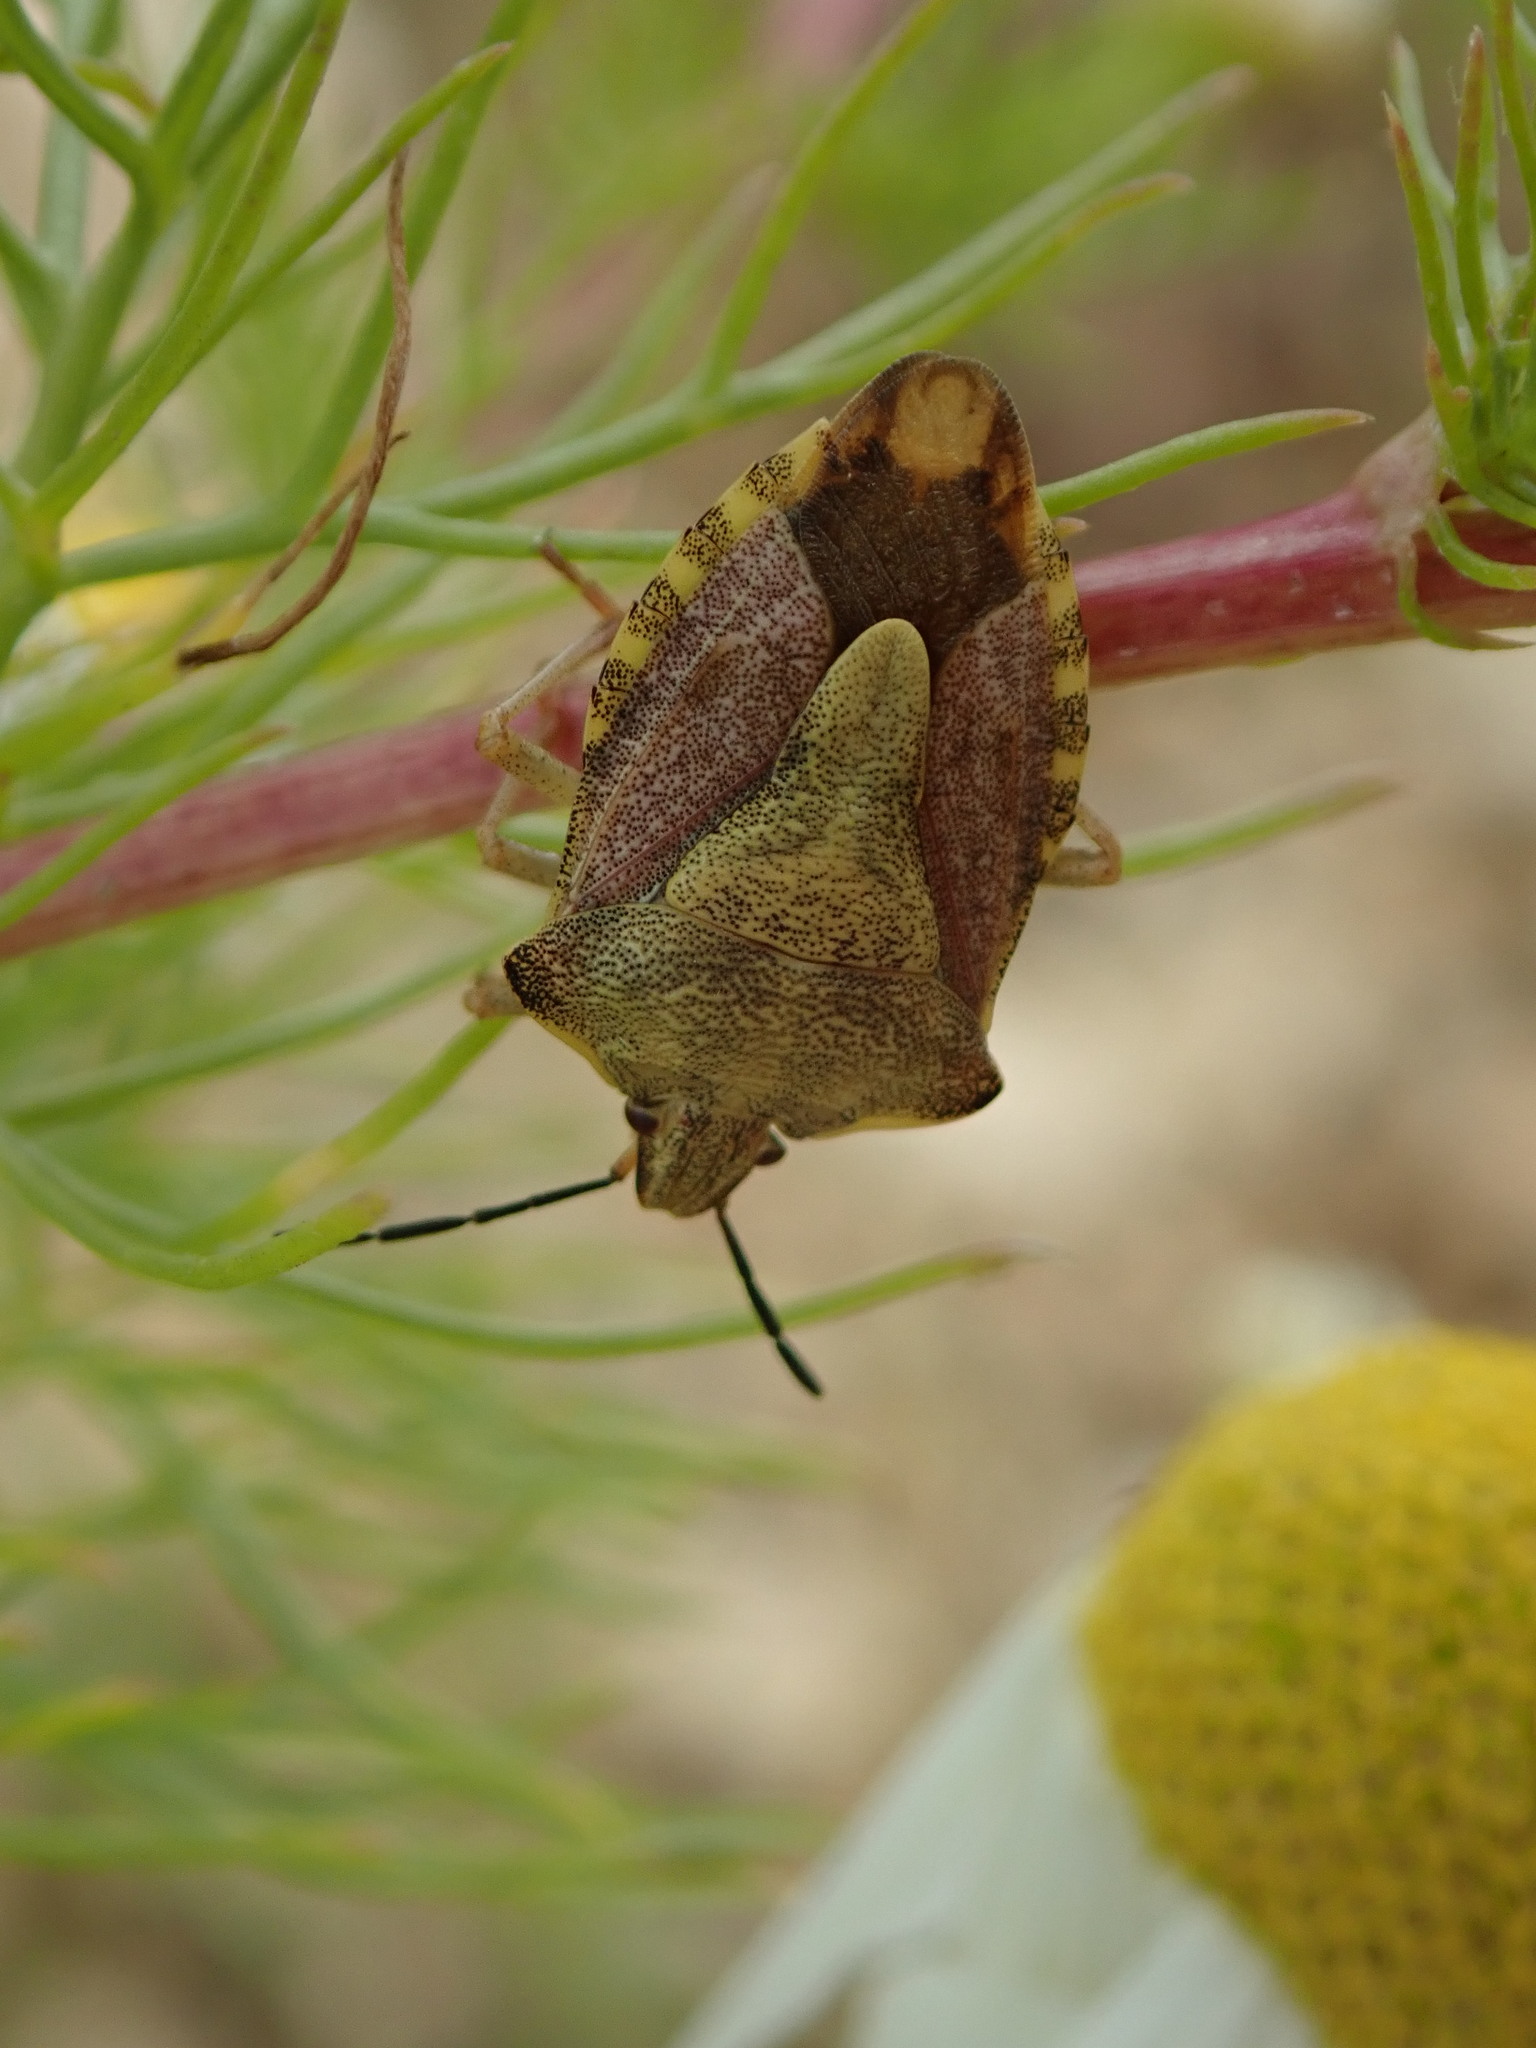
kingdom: Animalia
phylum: Arthropoda
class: Insecta
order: Hemiptera
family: Pentatomidae
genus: Carpocoris
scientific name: Carpocoris purpureipennis
